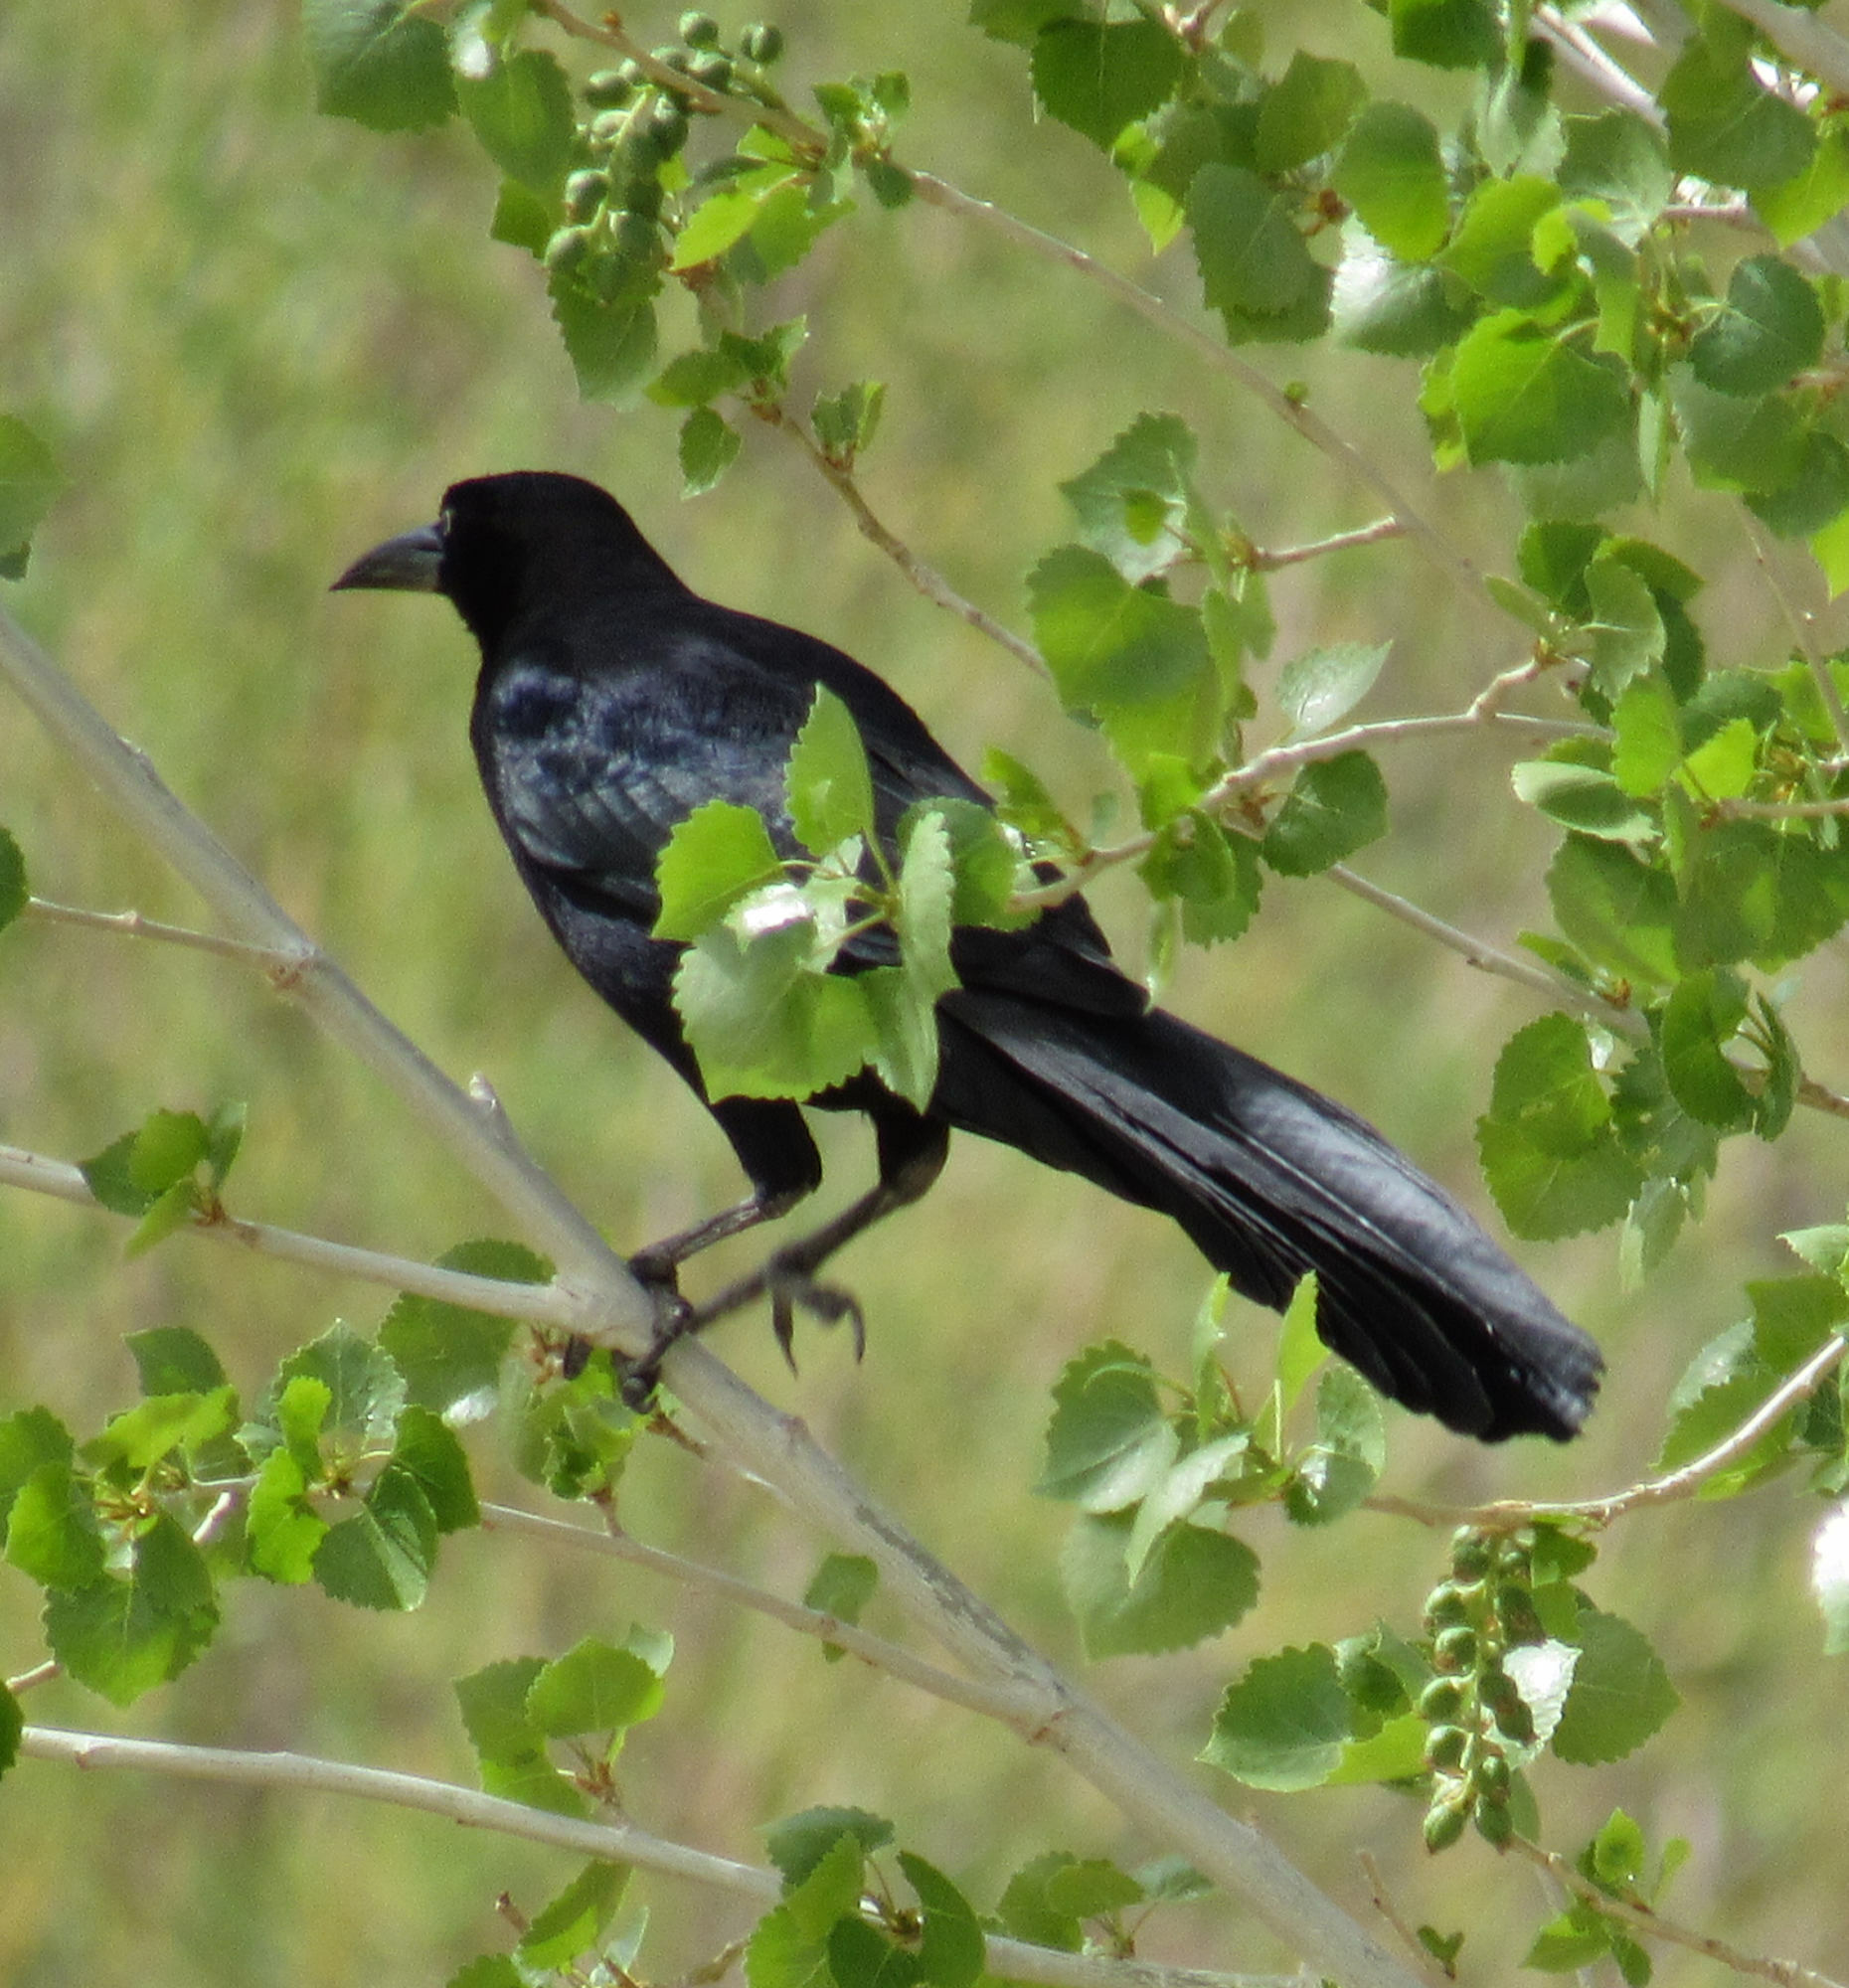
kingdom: Animalia
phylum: Chordata
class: Aves
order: Passeriformes
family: Icteridae
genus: Quiscalus
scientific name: Quiscalus mexicanus
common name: Great-tailed grackle
